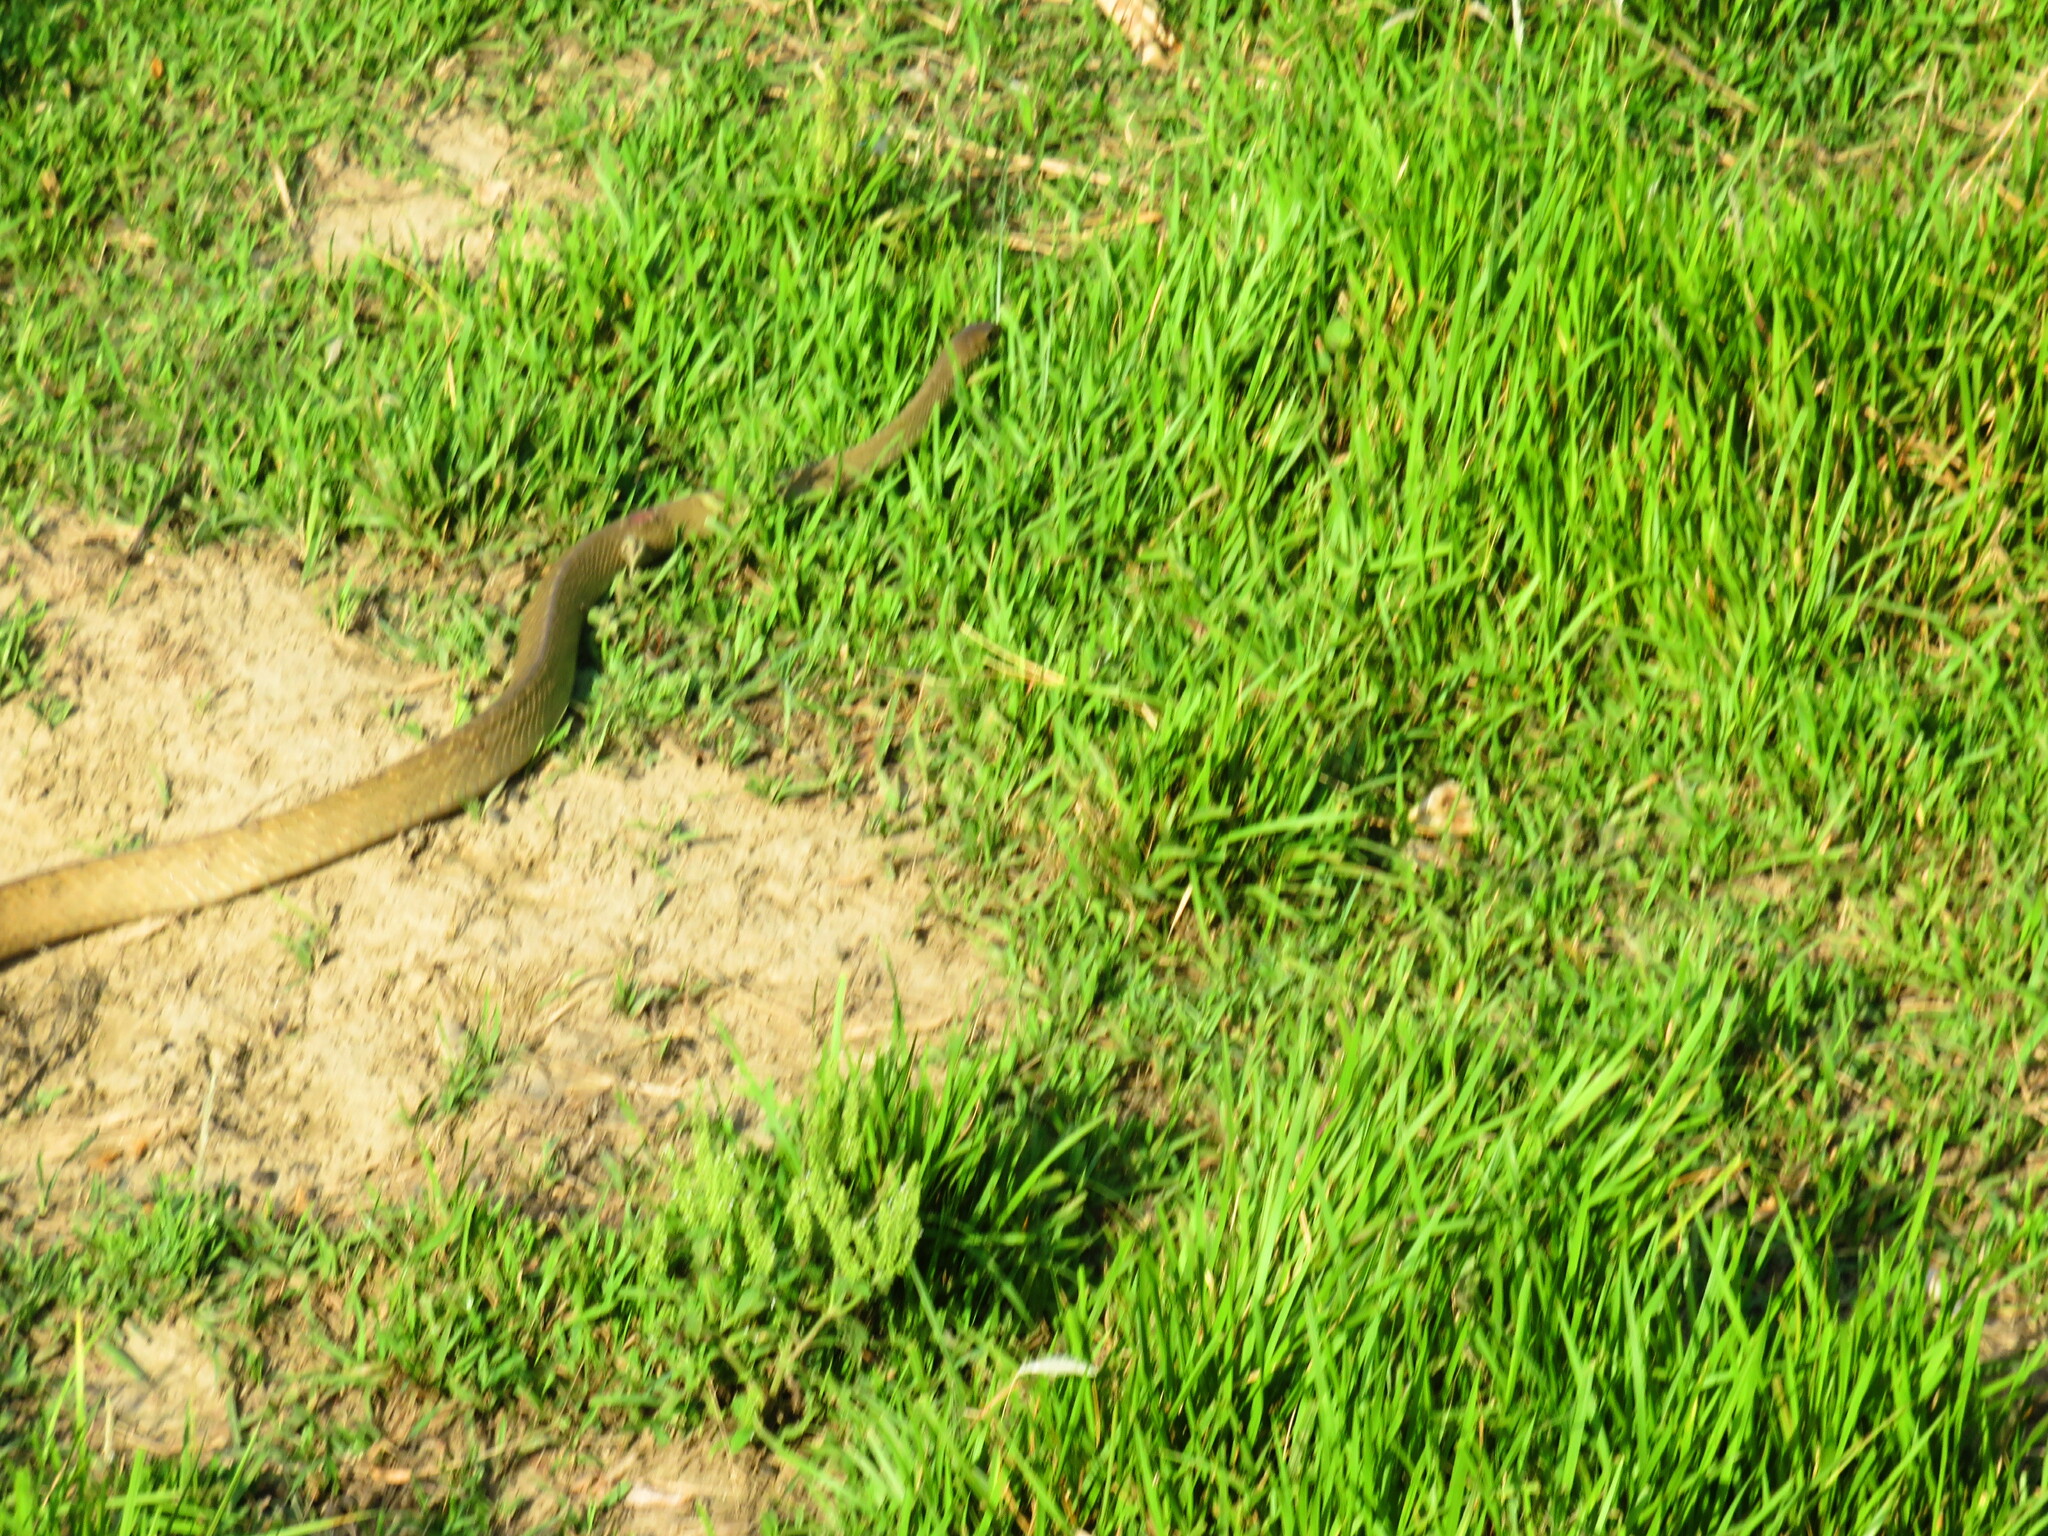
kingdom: Animalia
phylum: Chordata
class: Squamata
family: Colubridae
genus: Ptyas
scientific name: Ptyas mucosa
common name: Oriental ratsnake
